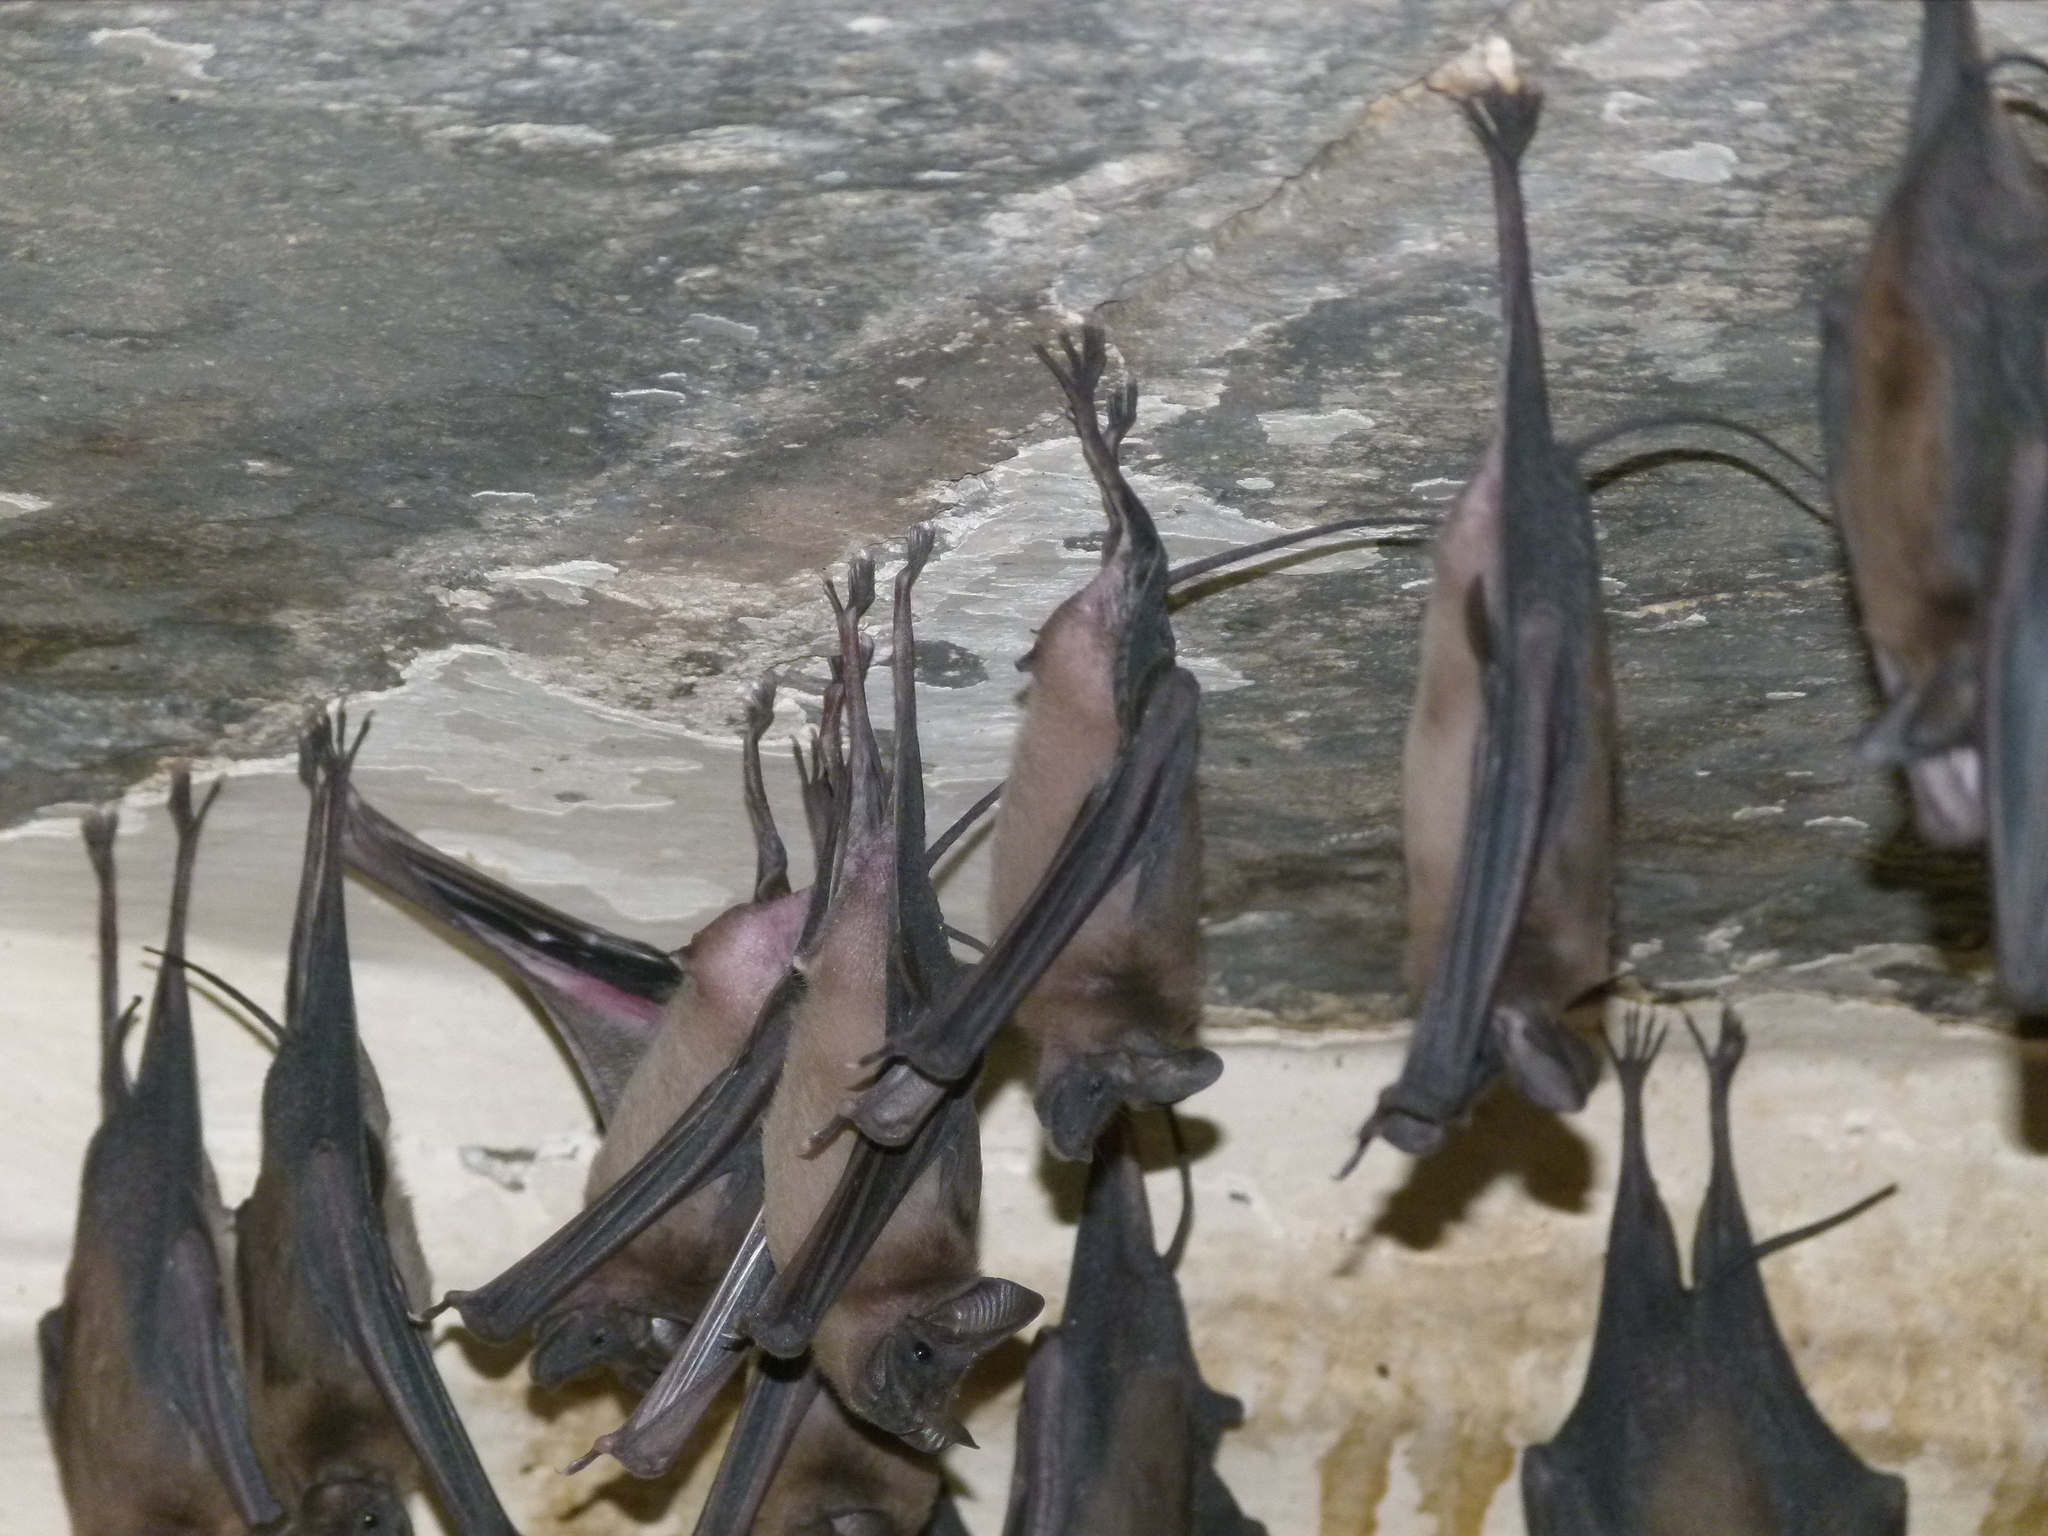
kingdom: Animalia
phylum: Chordata
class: Mammalia
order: Chiroptera
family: Rhinopomatidae
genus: Rhinopoma
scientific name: Rhinopoma microphyllum
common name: Greater mouse-tailed bat
